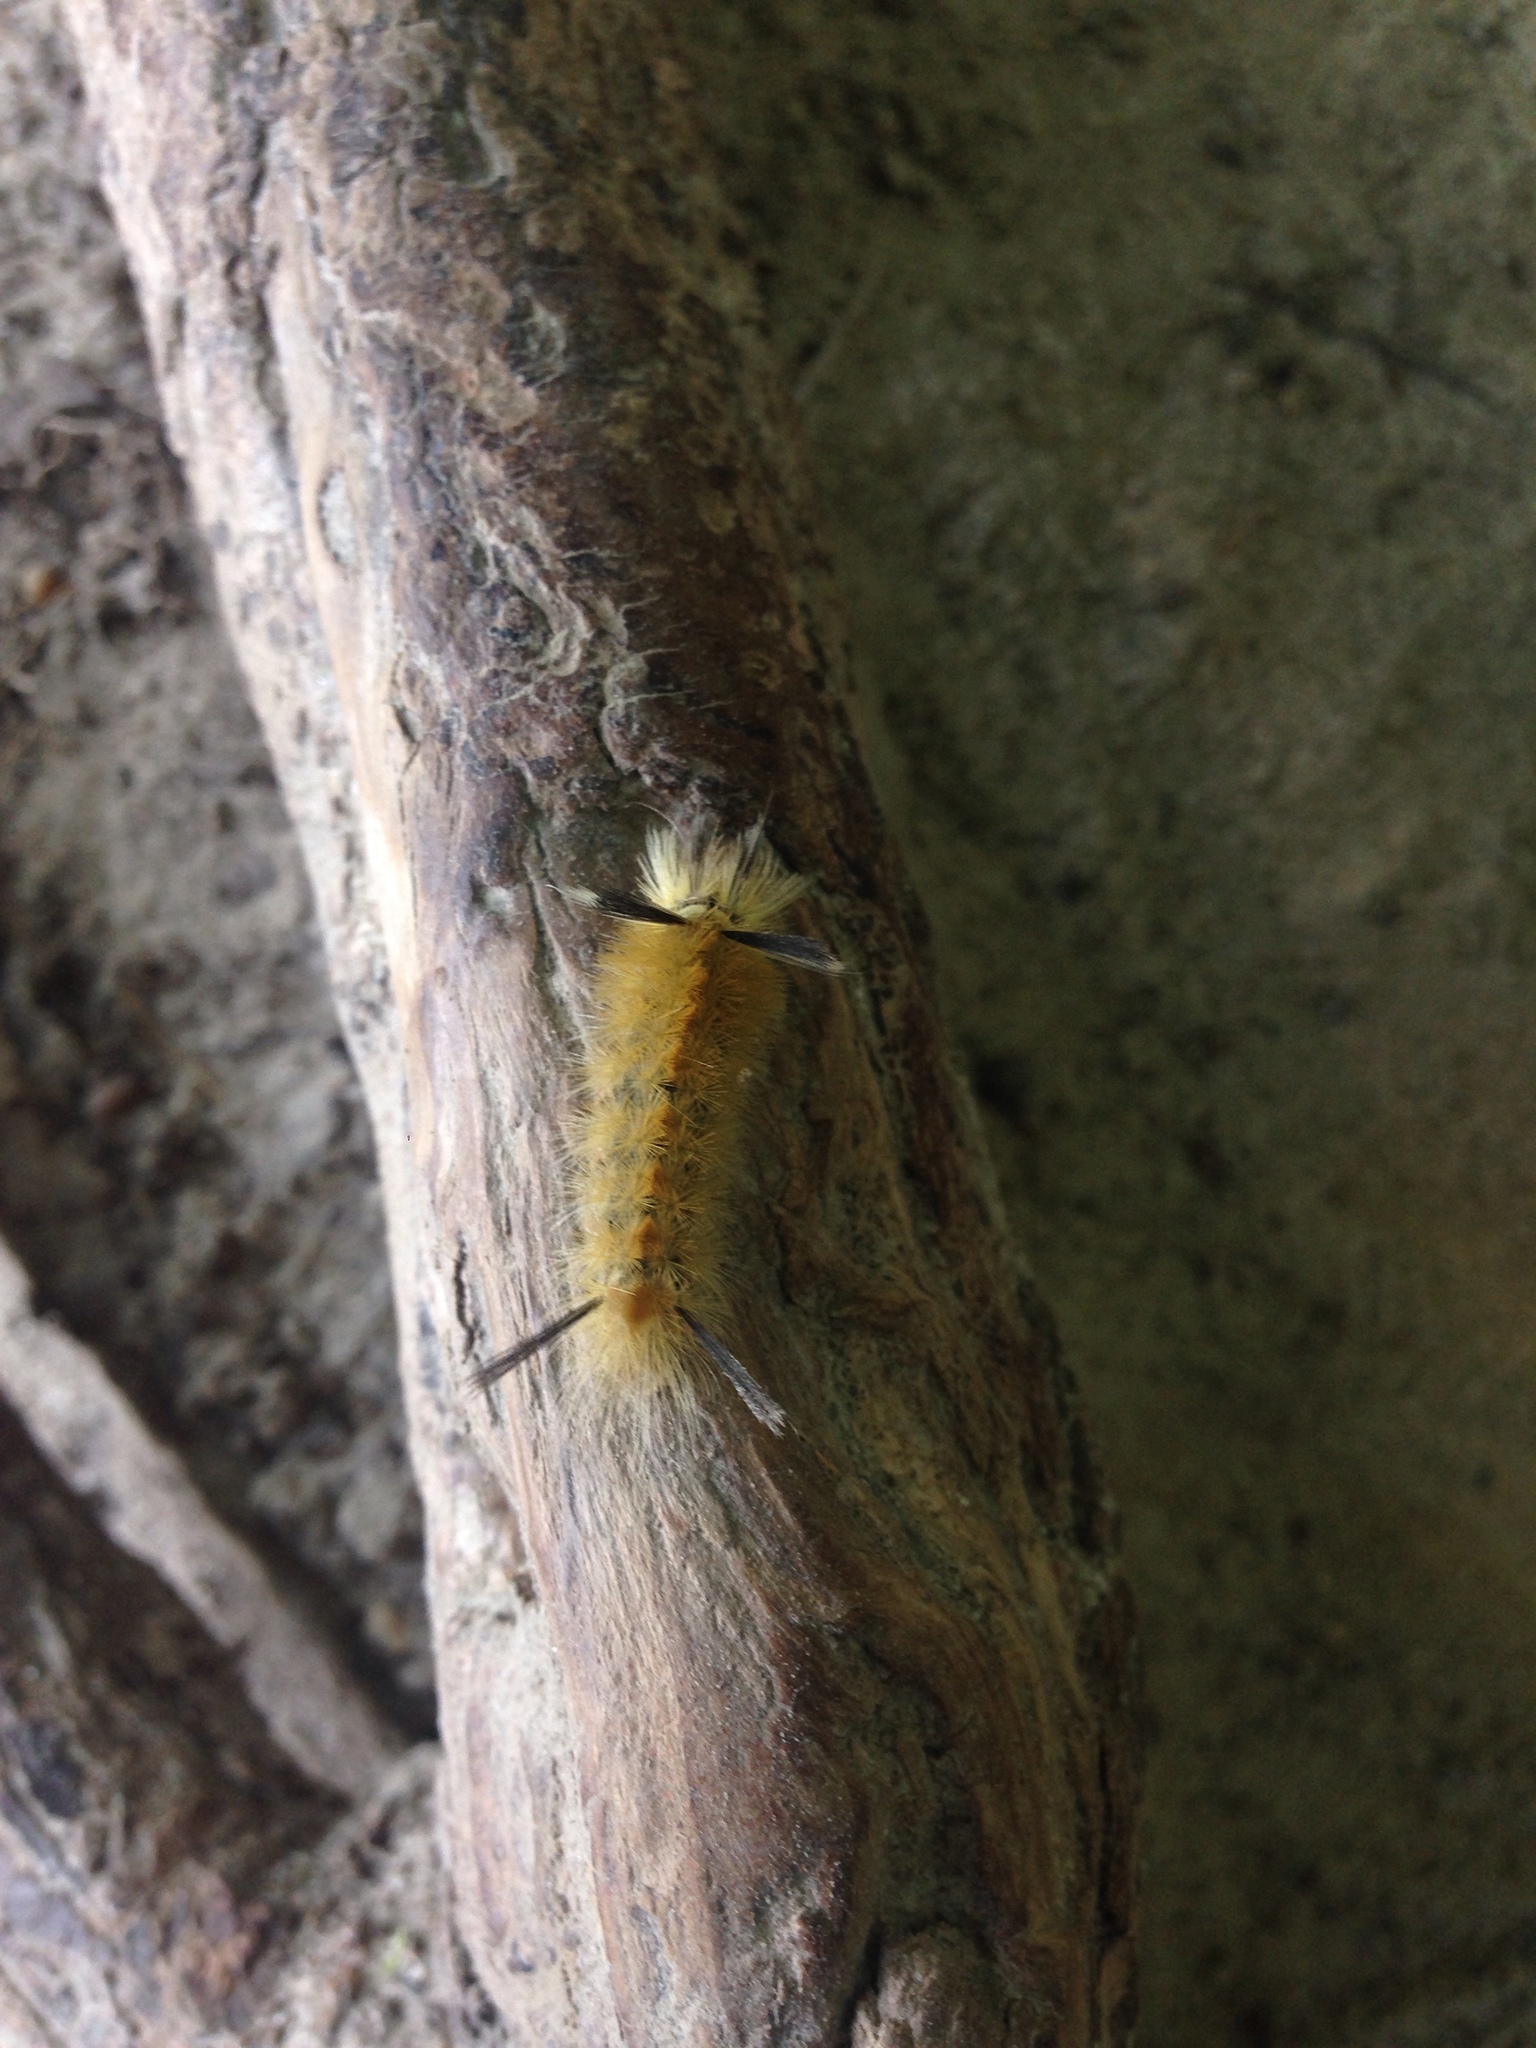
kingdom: Animalia
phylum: Arthropoda
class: Insecta
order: Lepidoptera
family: Erebidae
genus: Halysidota
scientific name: Halysidota tessellaris
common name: Banded tussock moth
